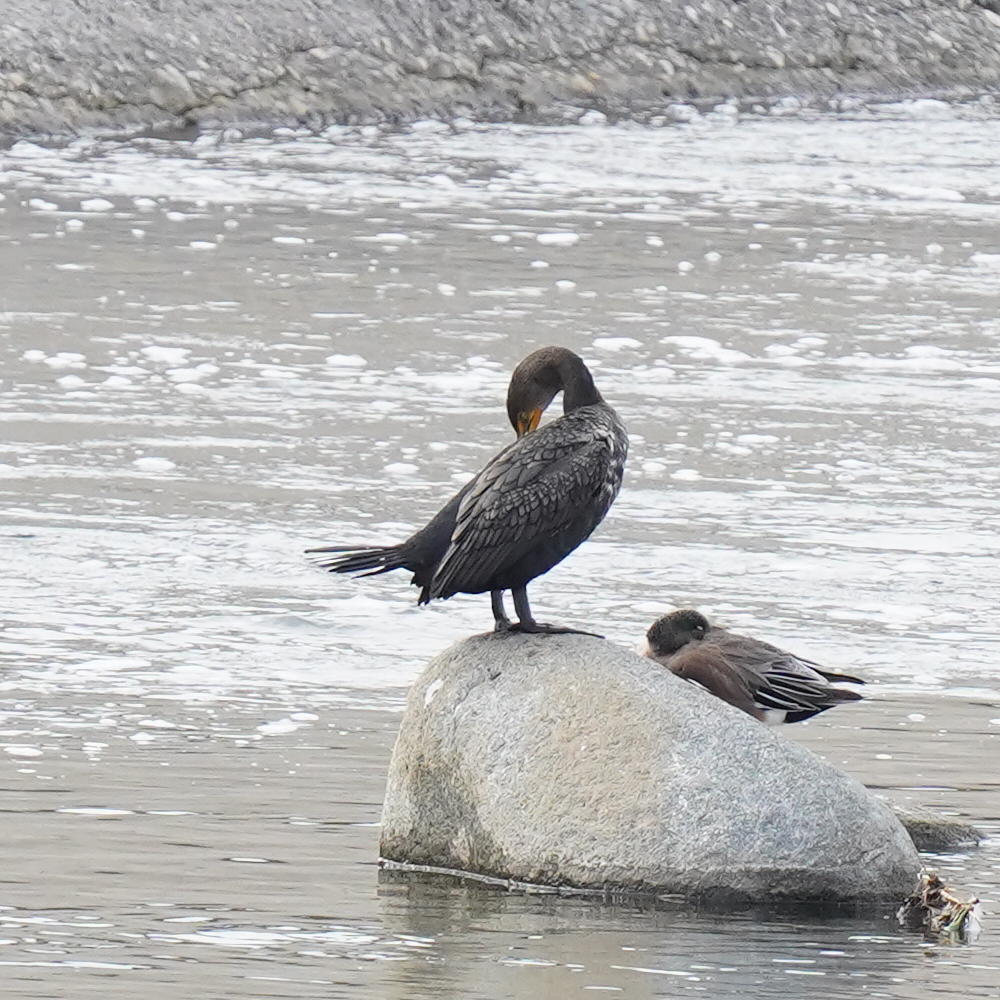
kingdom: Animalia
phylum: Chordata
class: Aves
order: Suliformes
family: Phalacrocoracidae
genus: Phalacrocorax
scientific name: Phalacrocorax auritus
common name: Double-crested cormorant
